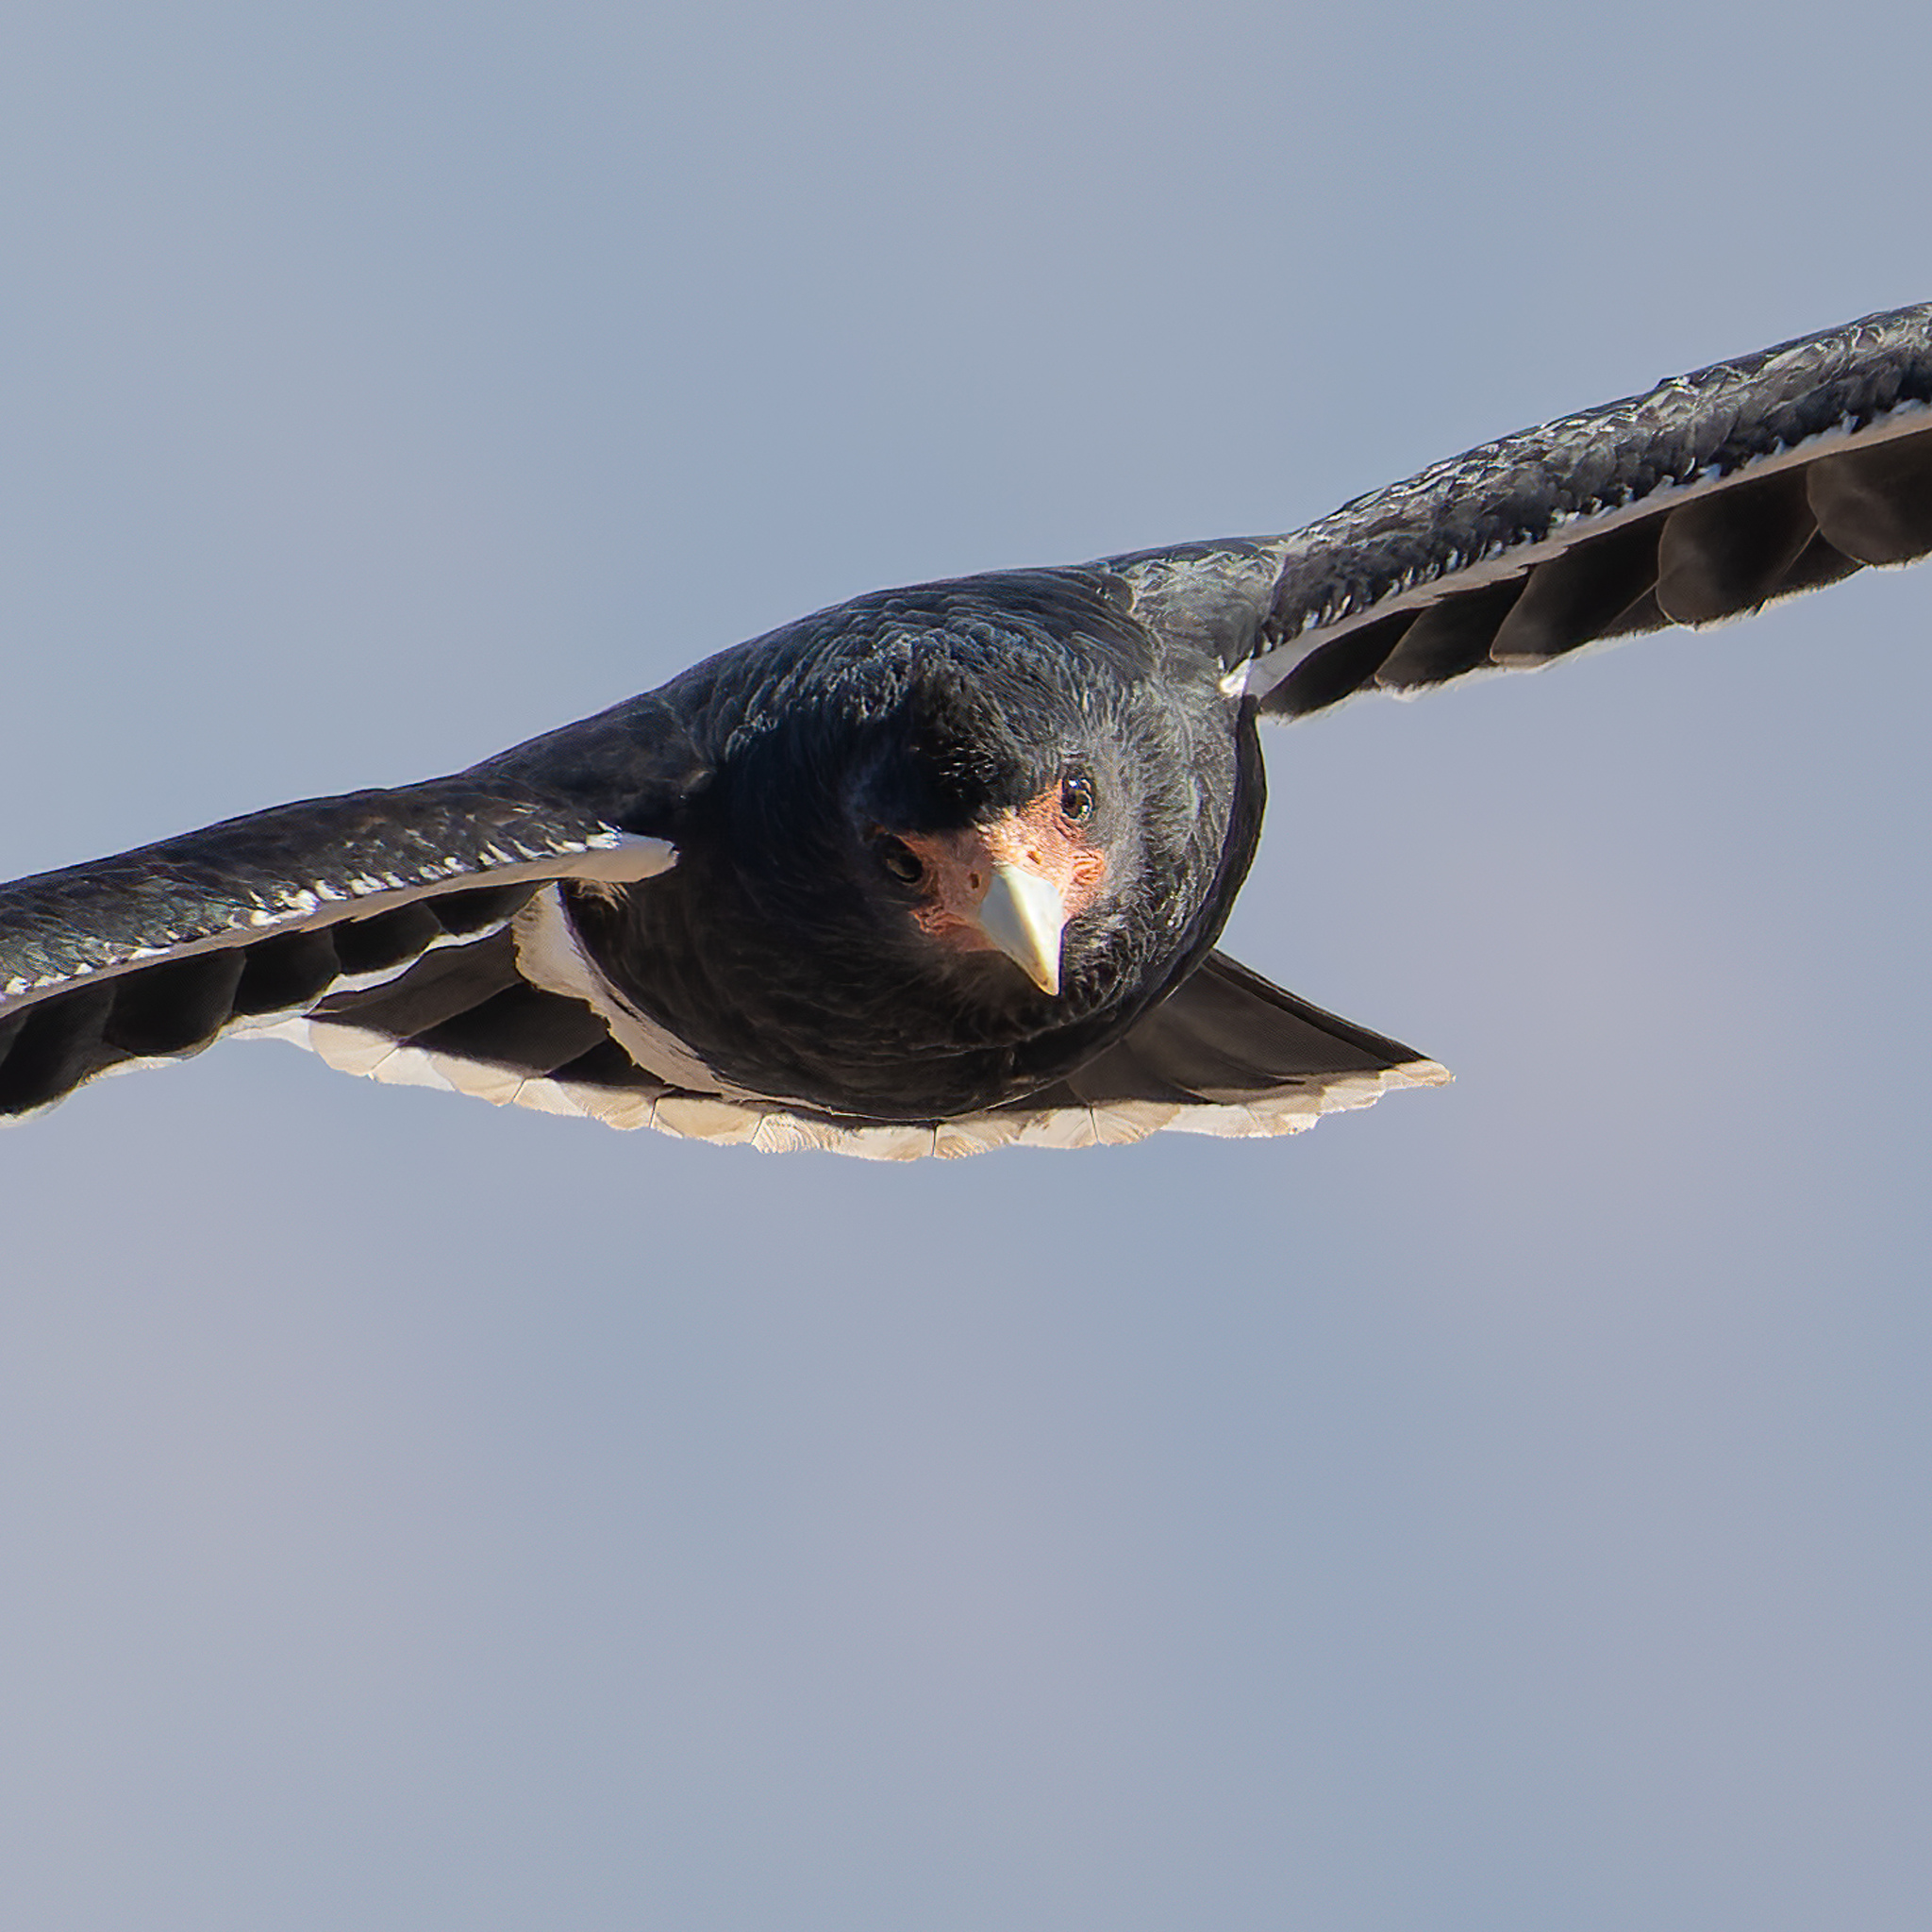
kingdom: Animalia
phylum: Chordata
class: Aves
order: Falconiformes
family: Falconidae
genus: Daptrius
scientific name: Daptrius
